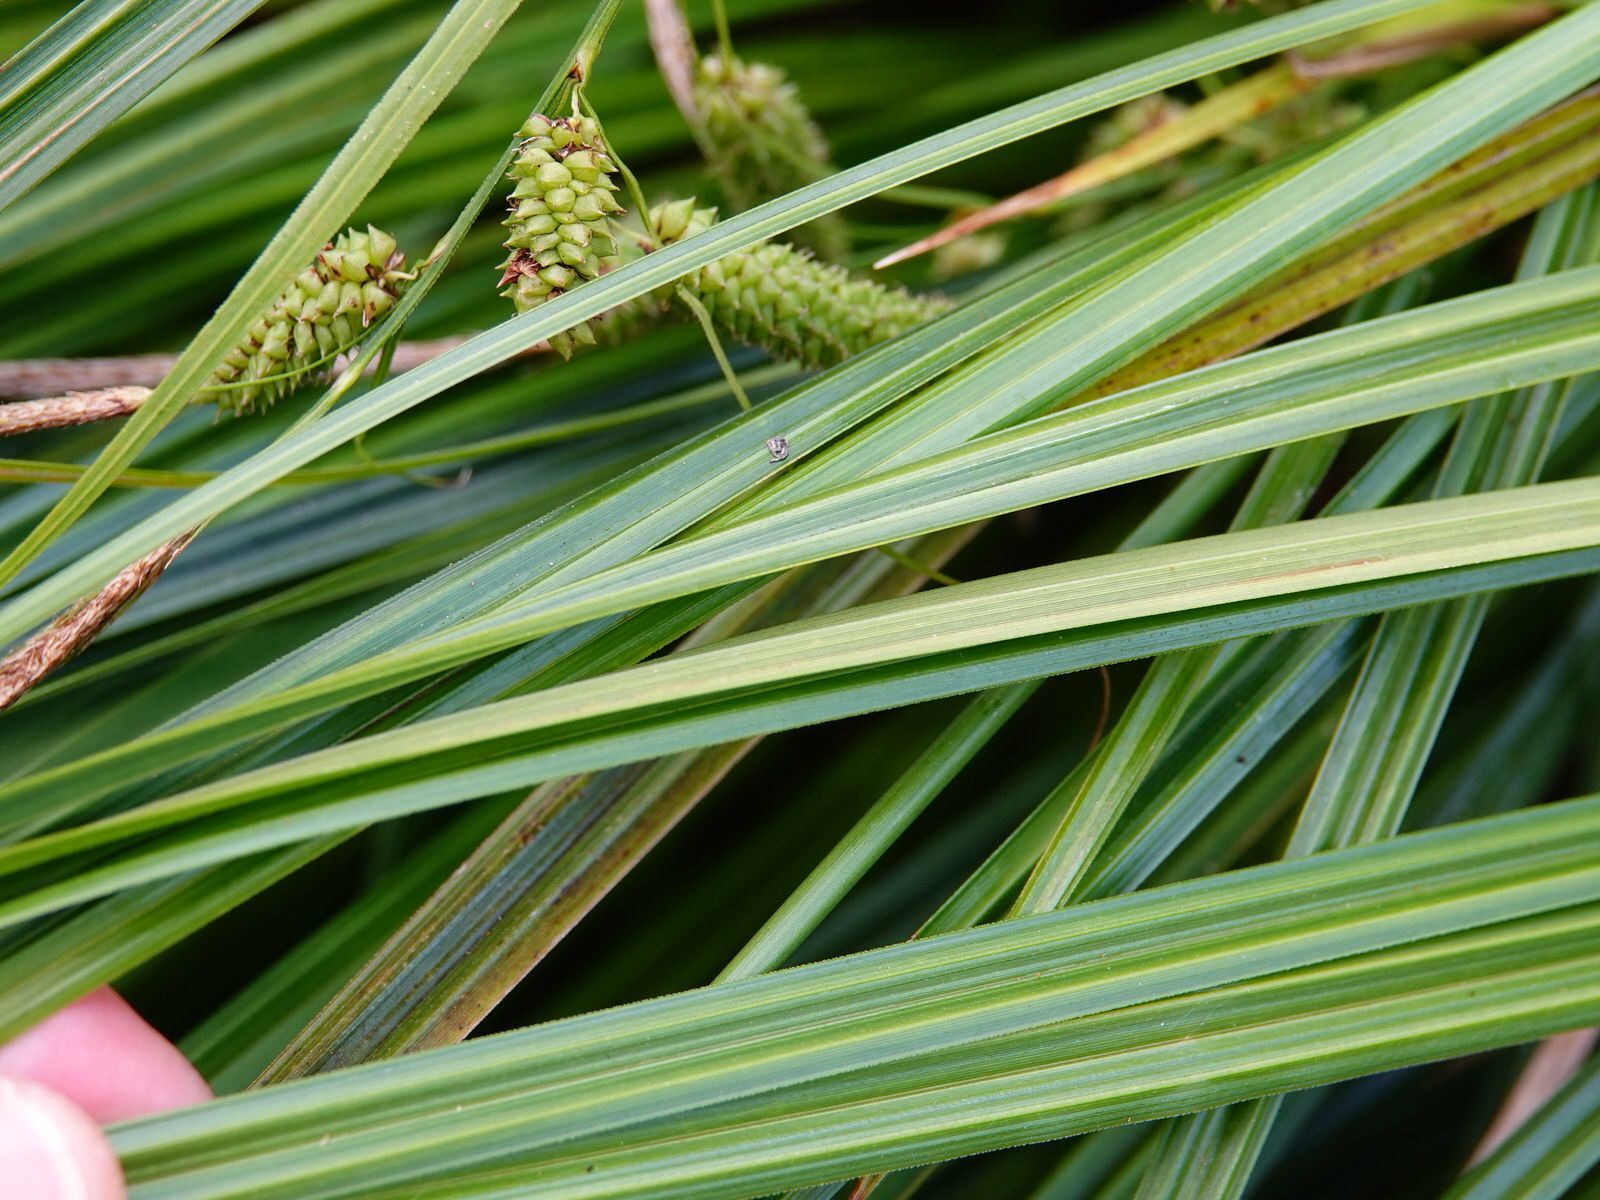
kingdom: Plantae
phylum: Tracheophyta
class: Liliopsida
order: Poales
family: Cyperaceae
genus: Carex
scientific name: Carex lessoniana
